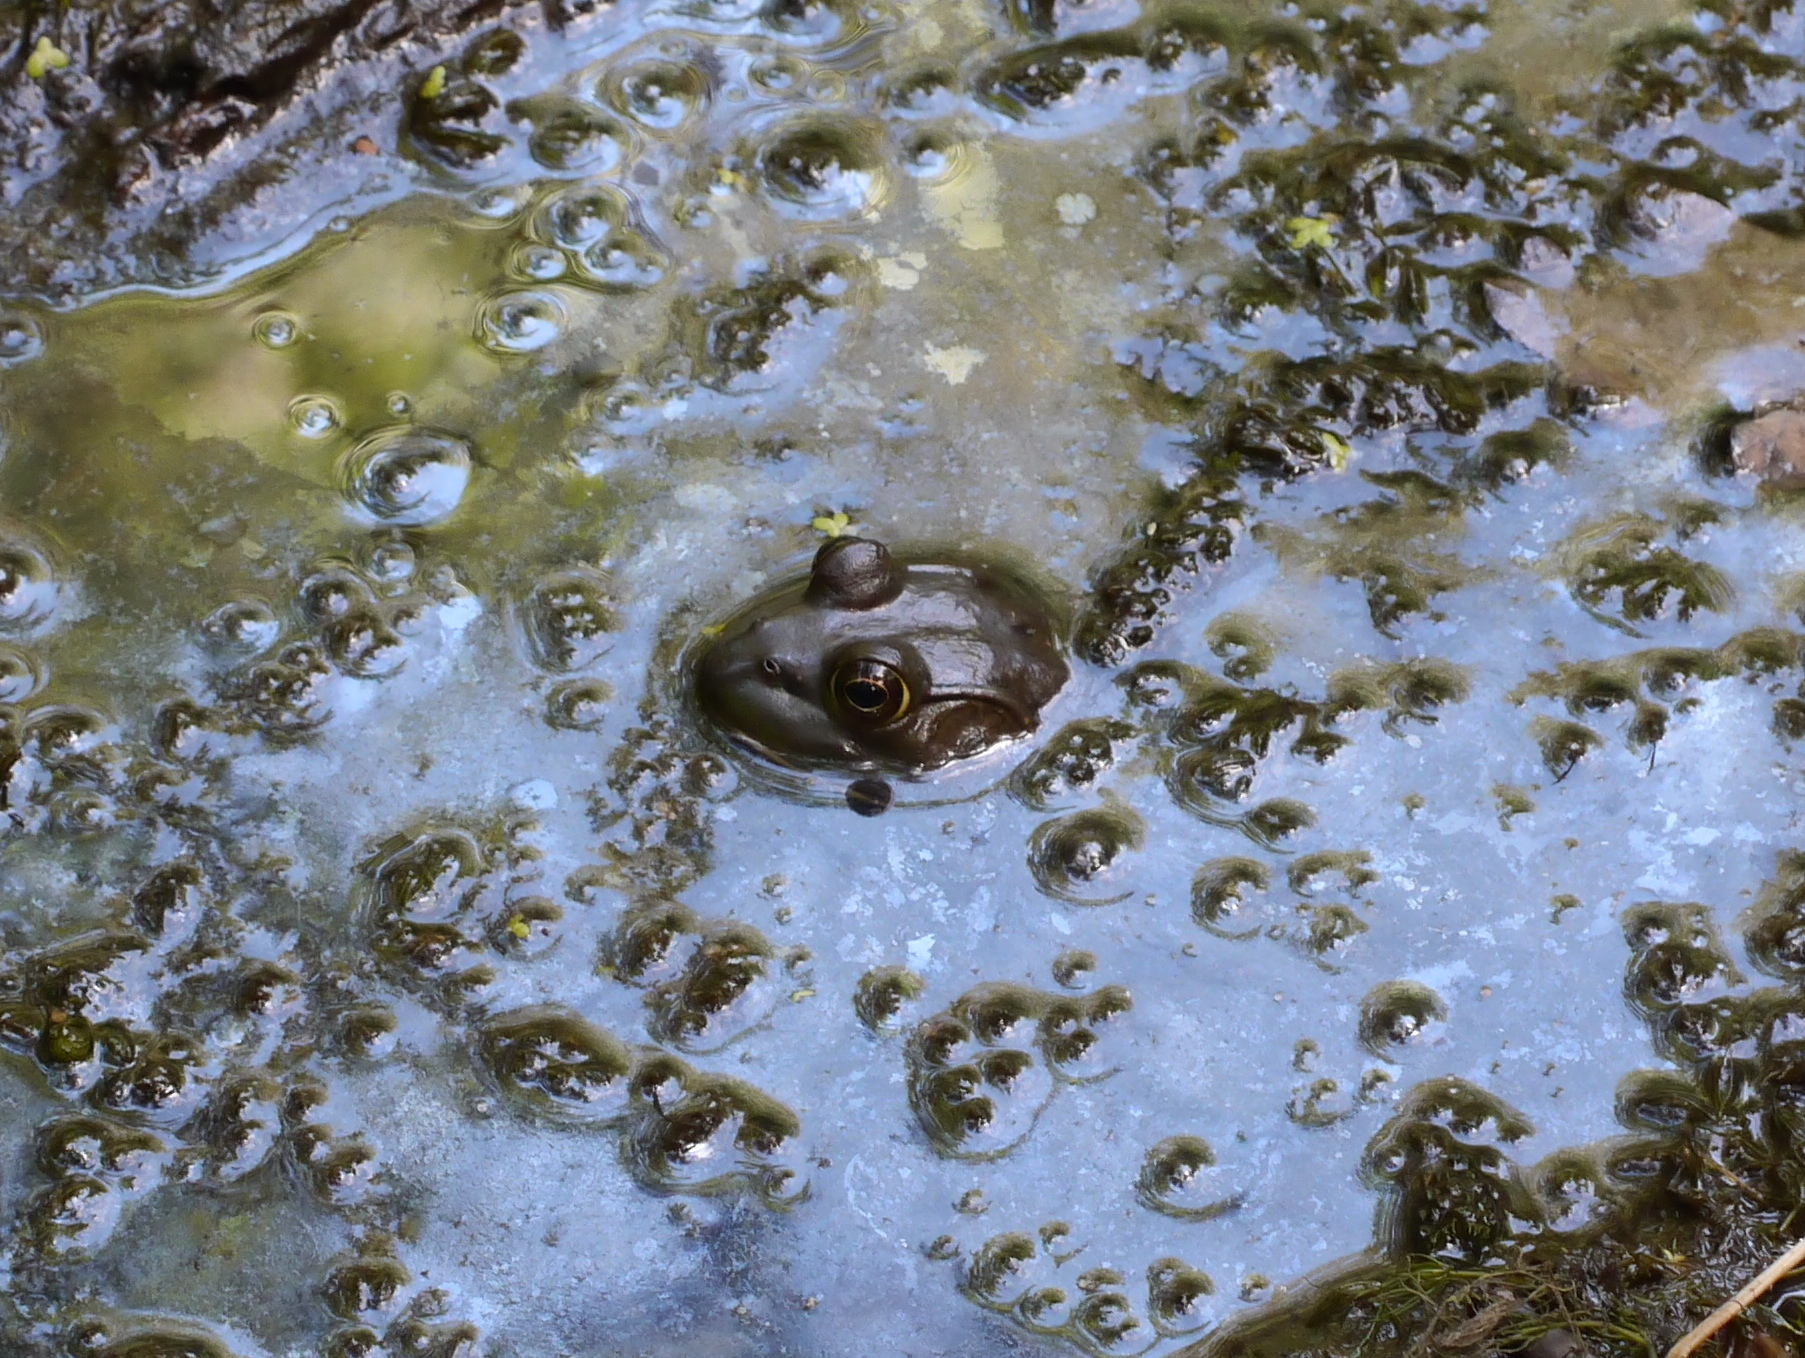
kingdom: Animalia
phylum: Chordata
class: Amphibia
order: Anura
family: Ranidae
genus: Lithobates
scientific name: Lithobates catesbeianus
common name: American bullfrog
